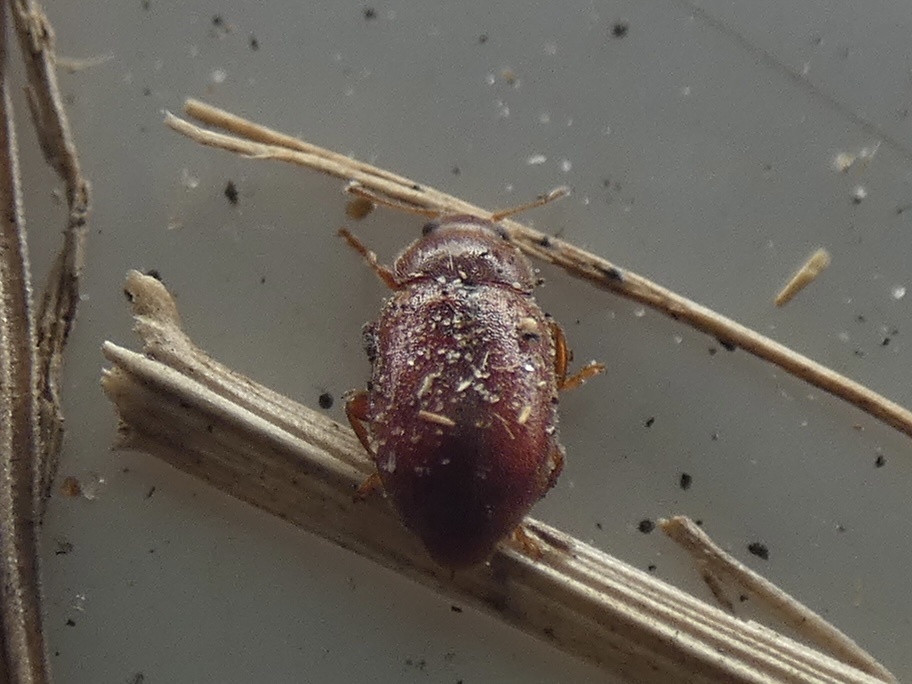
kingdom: Animalia
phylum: Arthropoda
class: Insecta
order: Coleoptera
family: Coccinellidae
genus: Coccidula
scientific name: Coccidula rufa
